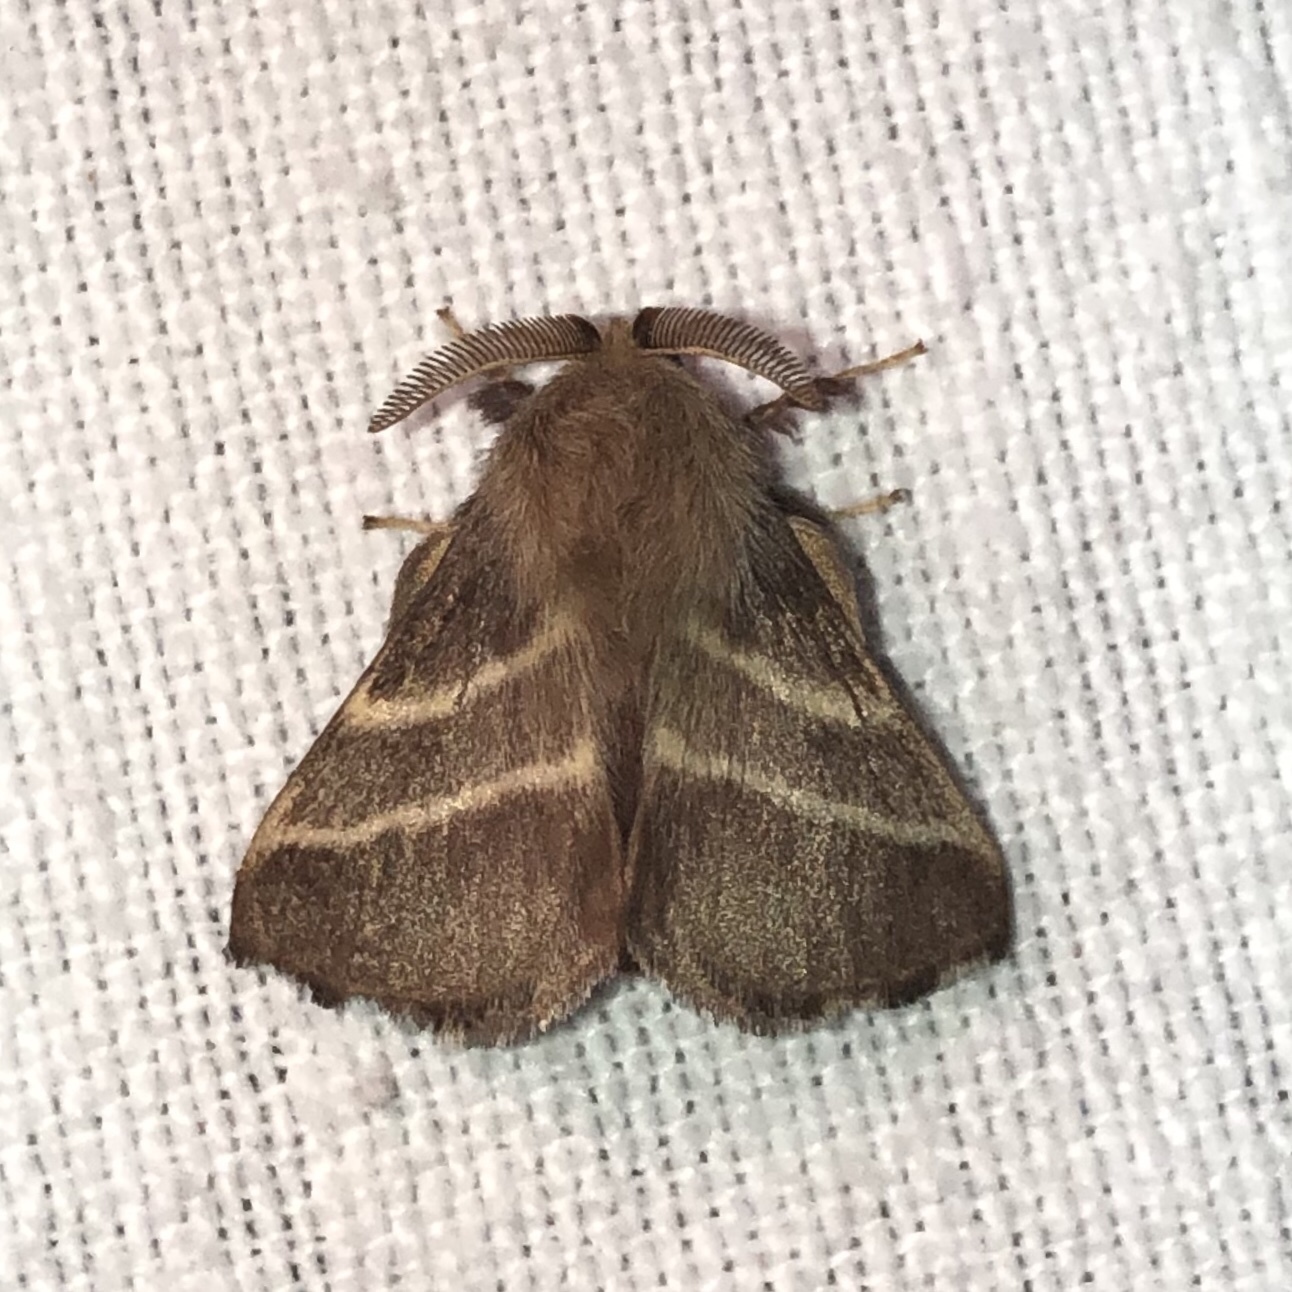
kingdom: Animalia
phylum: Arthropoda
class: Insecta
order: Lepidoptera
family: Lasiocampidae
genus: Malacosoma
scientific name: Malacosoma americana
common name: Eastern tent caterpillar moth
